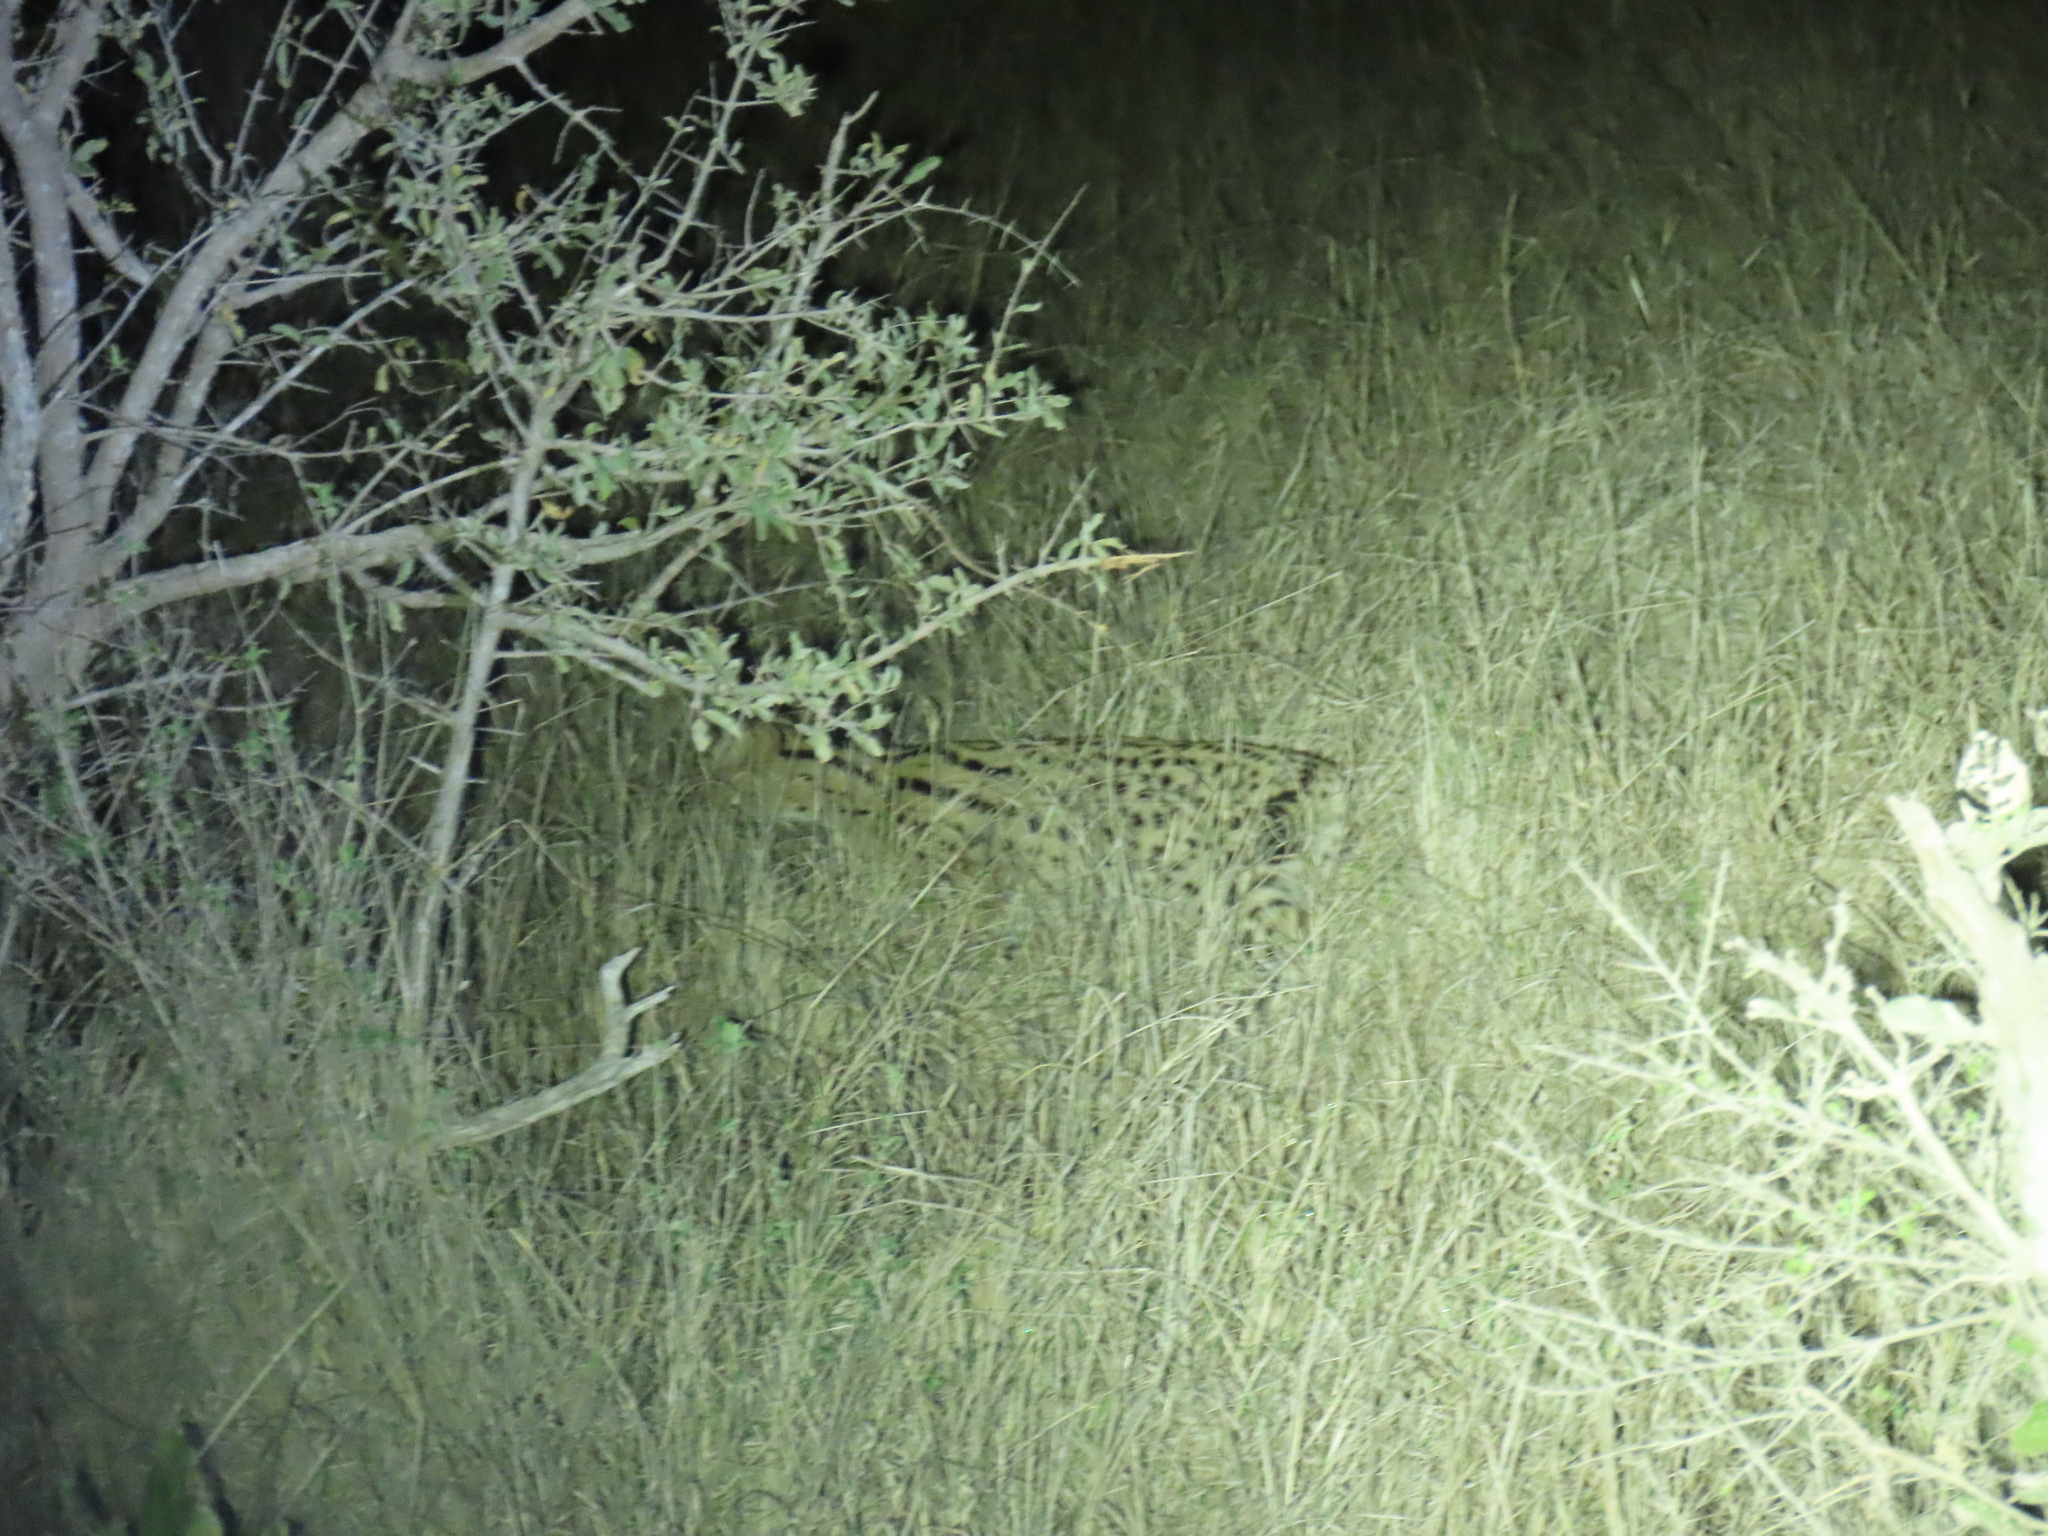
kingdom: Animalia
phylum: Chordata
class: Mammalia
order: Carnivora
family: Felidae
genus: Leptailurus
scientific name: Leptailurus serval
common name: Serval
